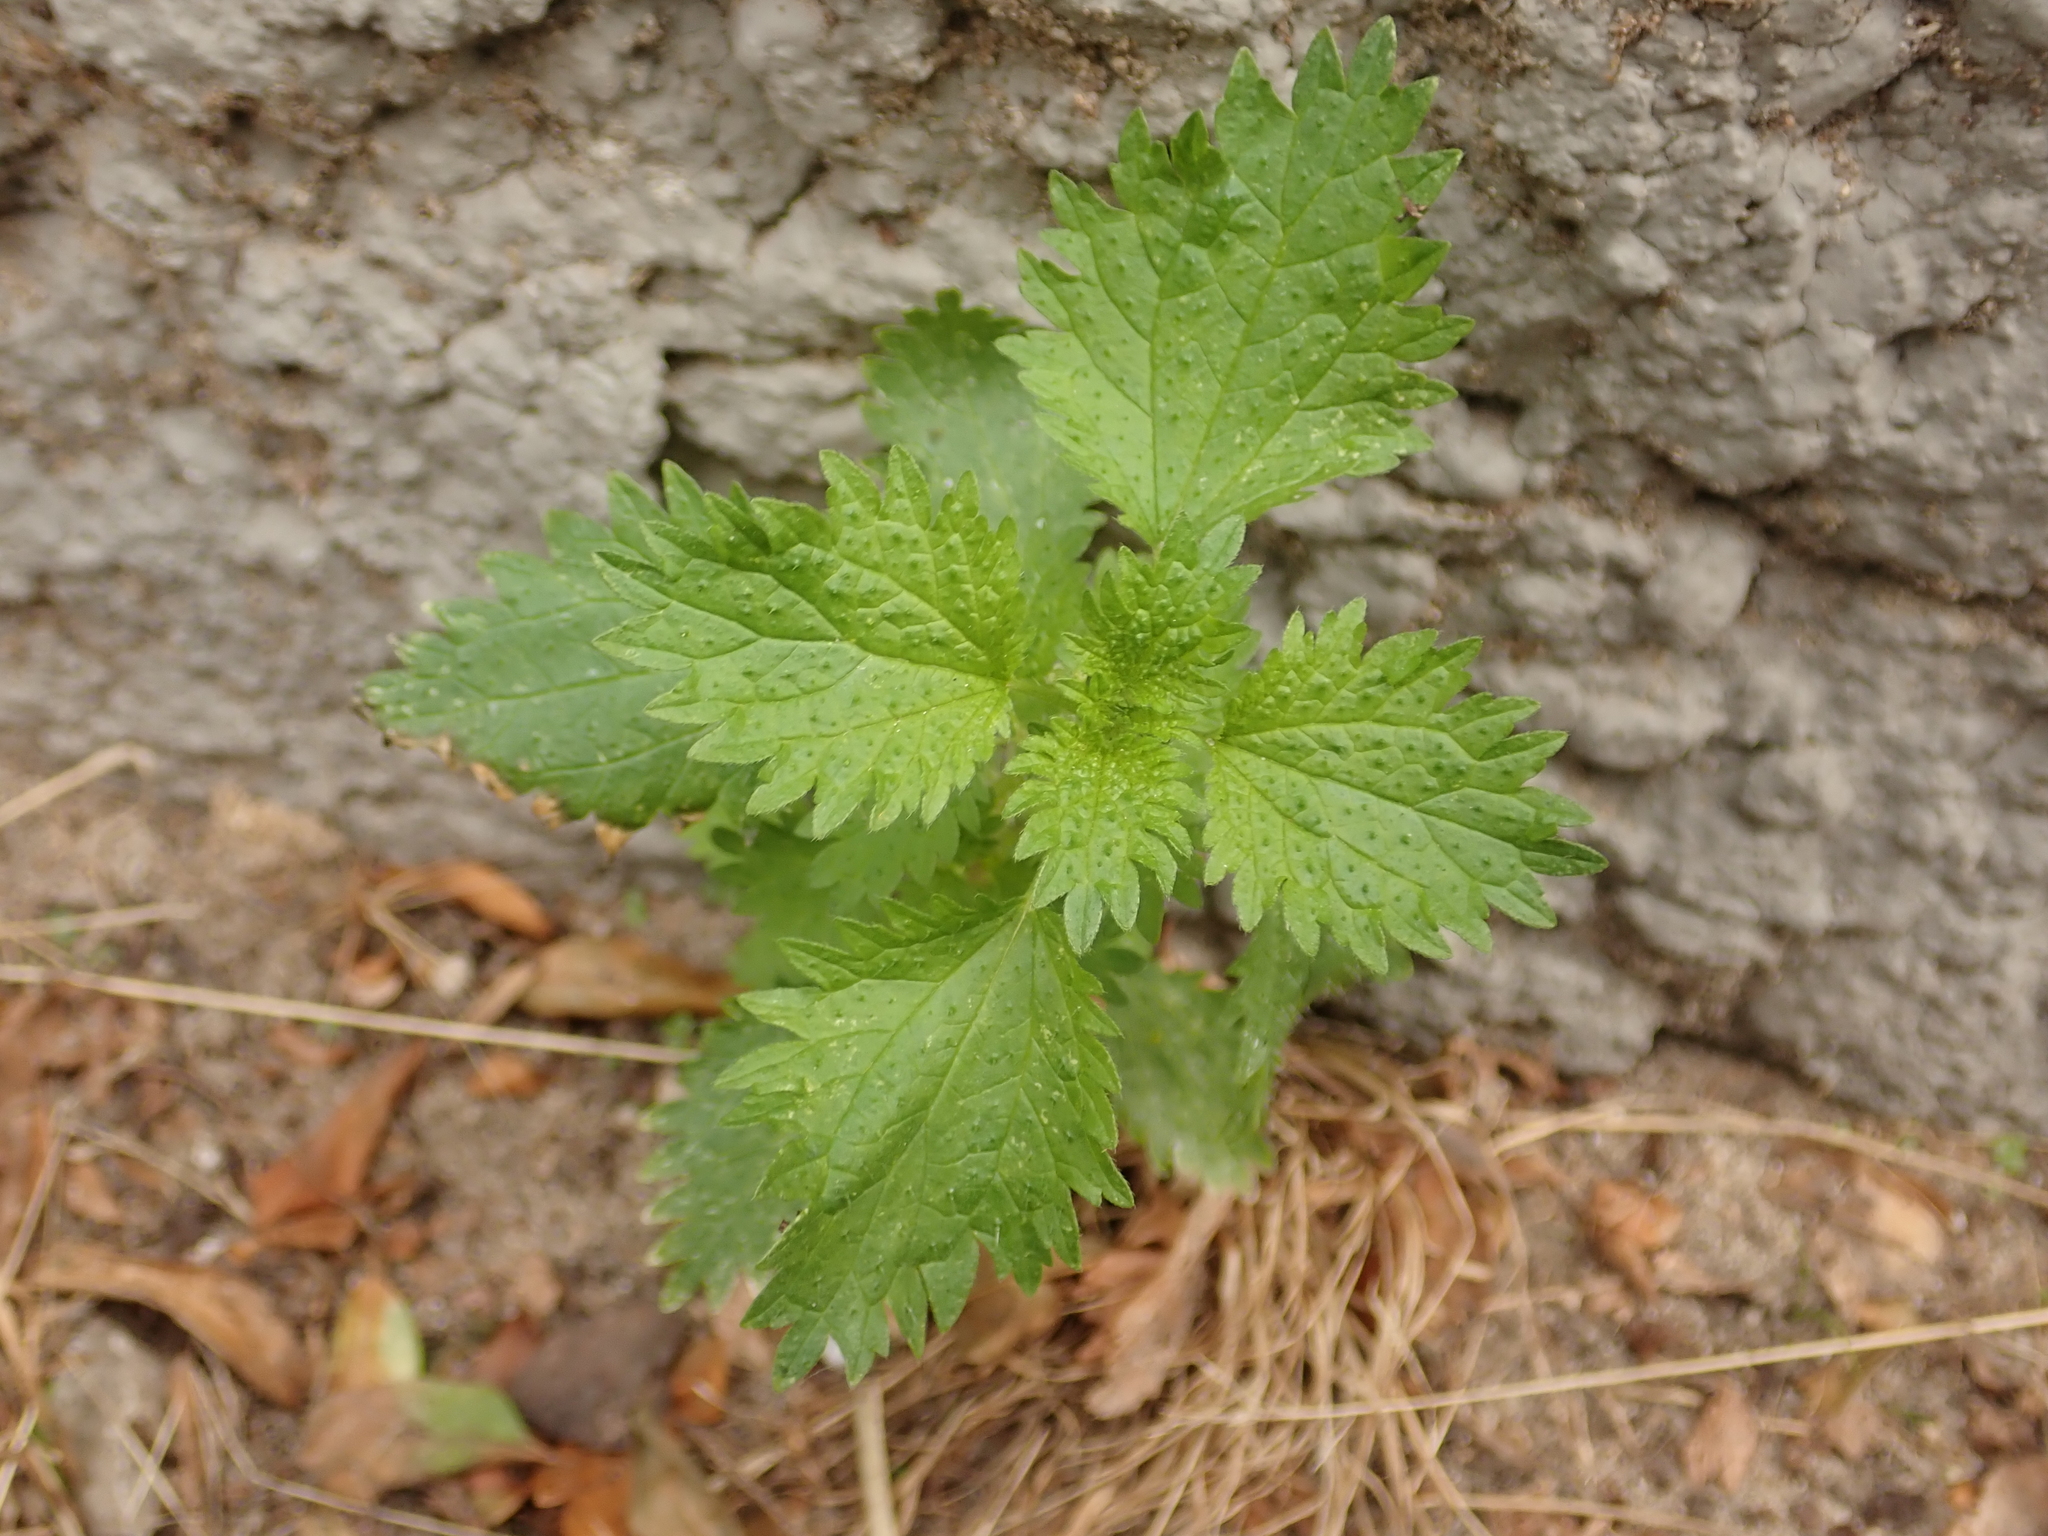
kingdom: Plantae
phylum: Tracheophyta
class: Magnoliopsida
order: Rosales
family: Urticaceae
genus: Urtica
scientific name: Urtica urens
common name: Dwarf nettle
